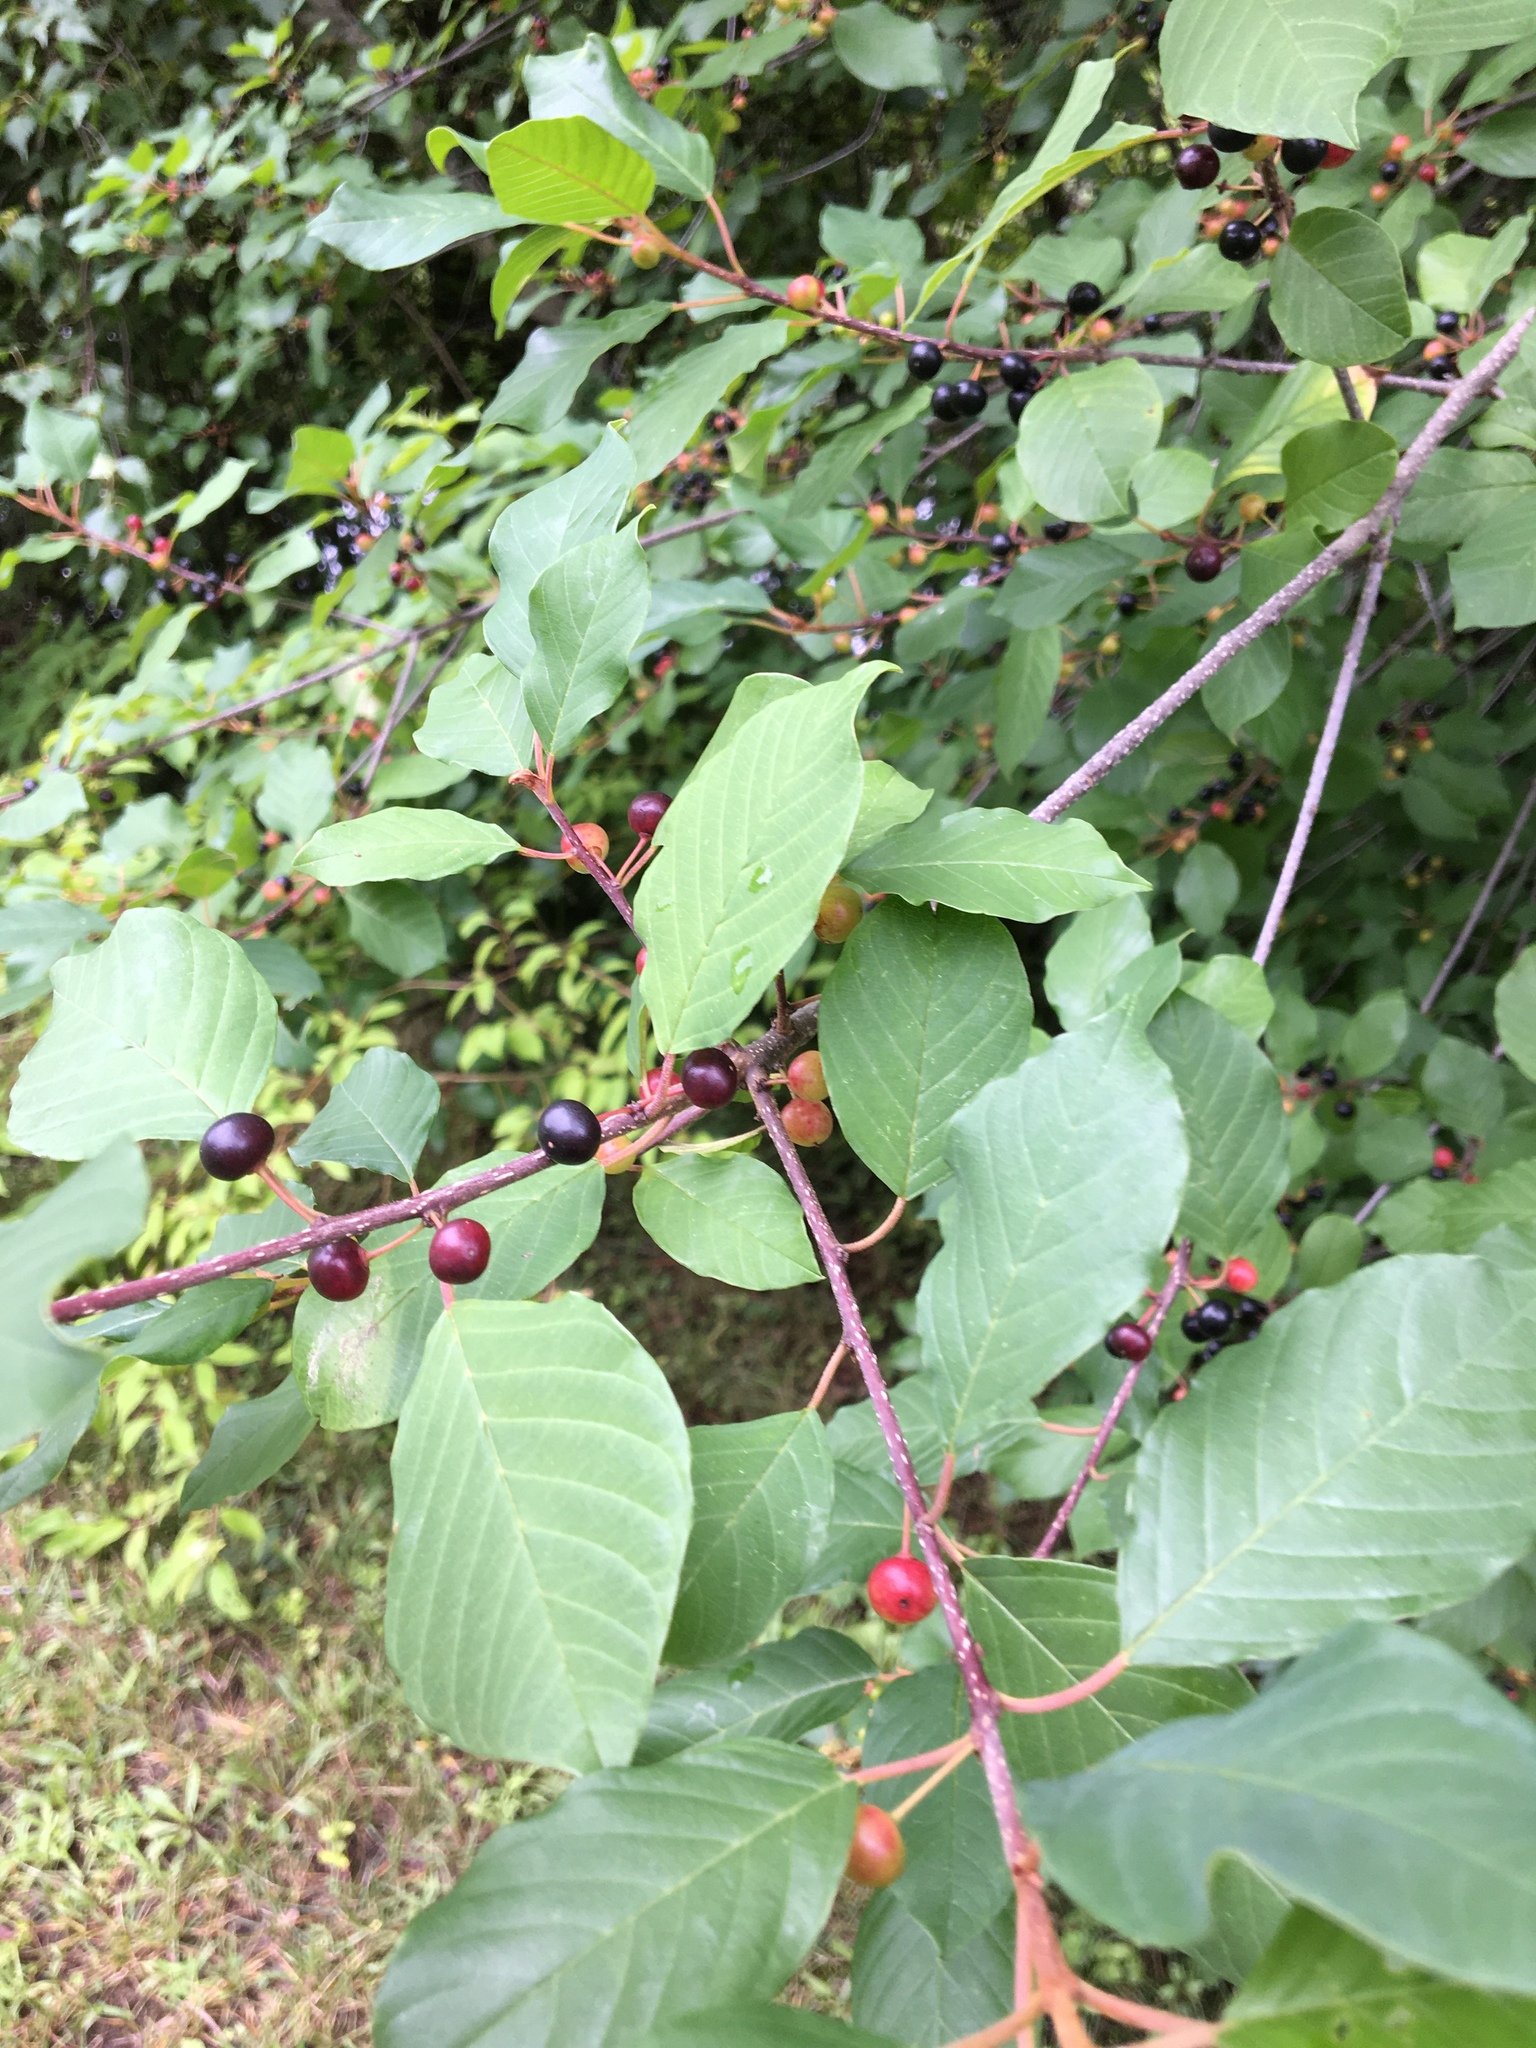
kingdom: Plantae
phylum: Tracheophyta
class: Magnoliopsida
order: Rosales
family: Rhamnaceae
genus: Frangula
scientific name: Frangula alnus
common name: Alder buckthorn
